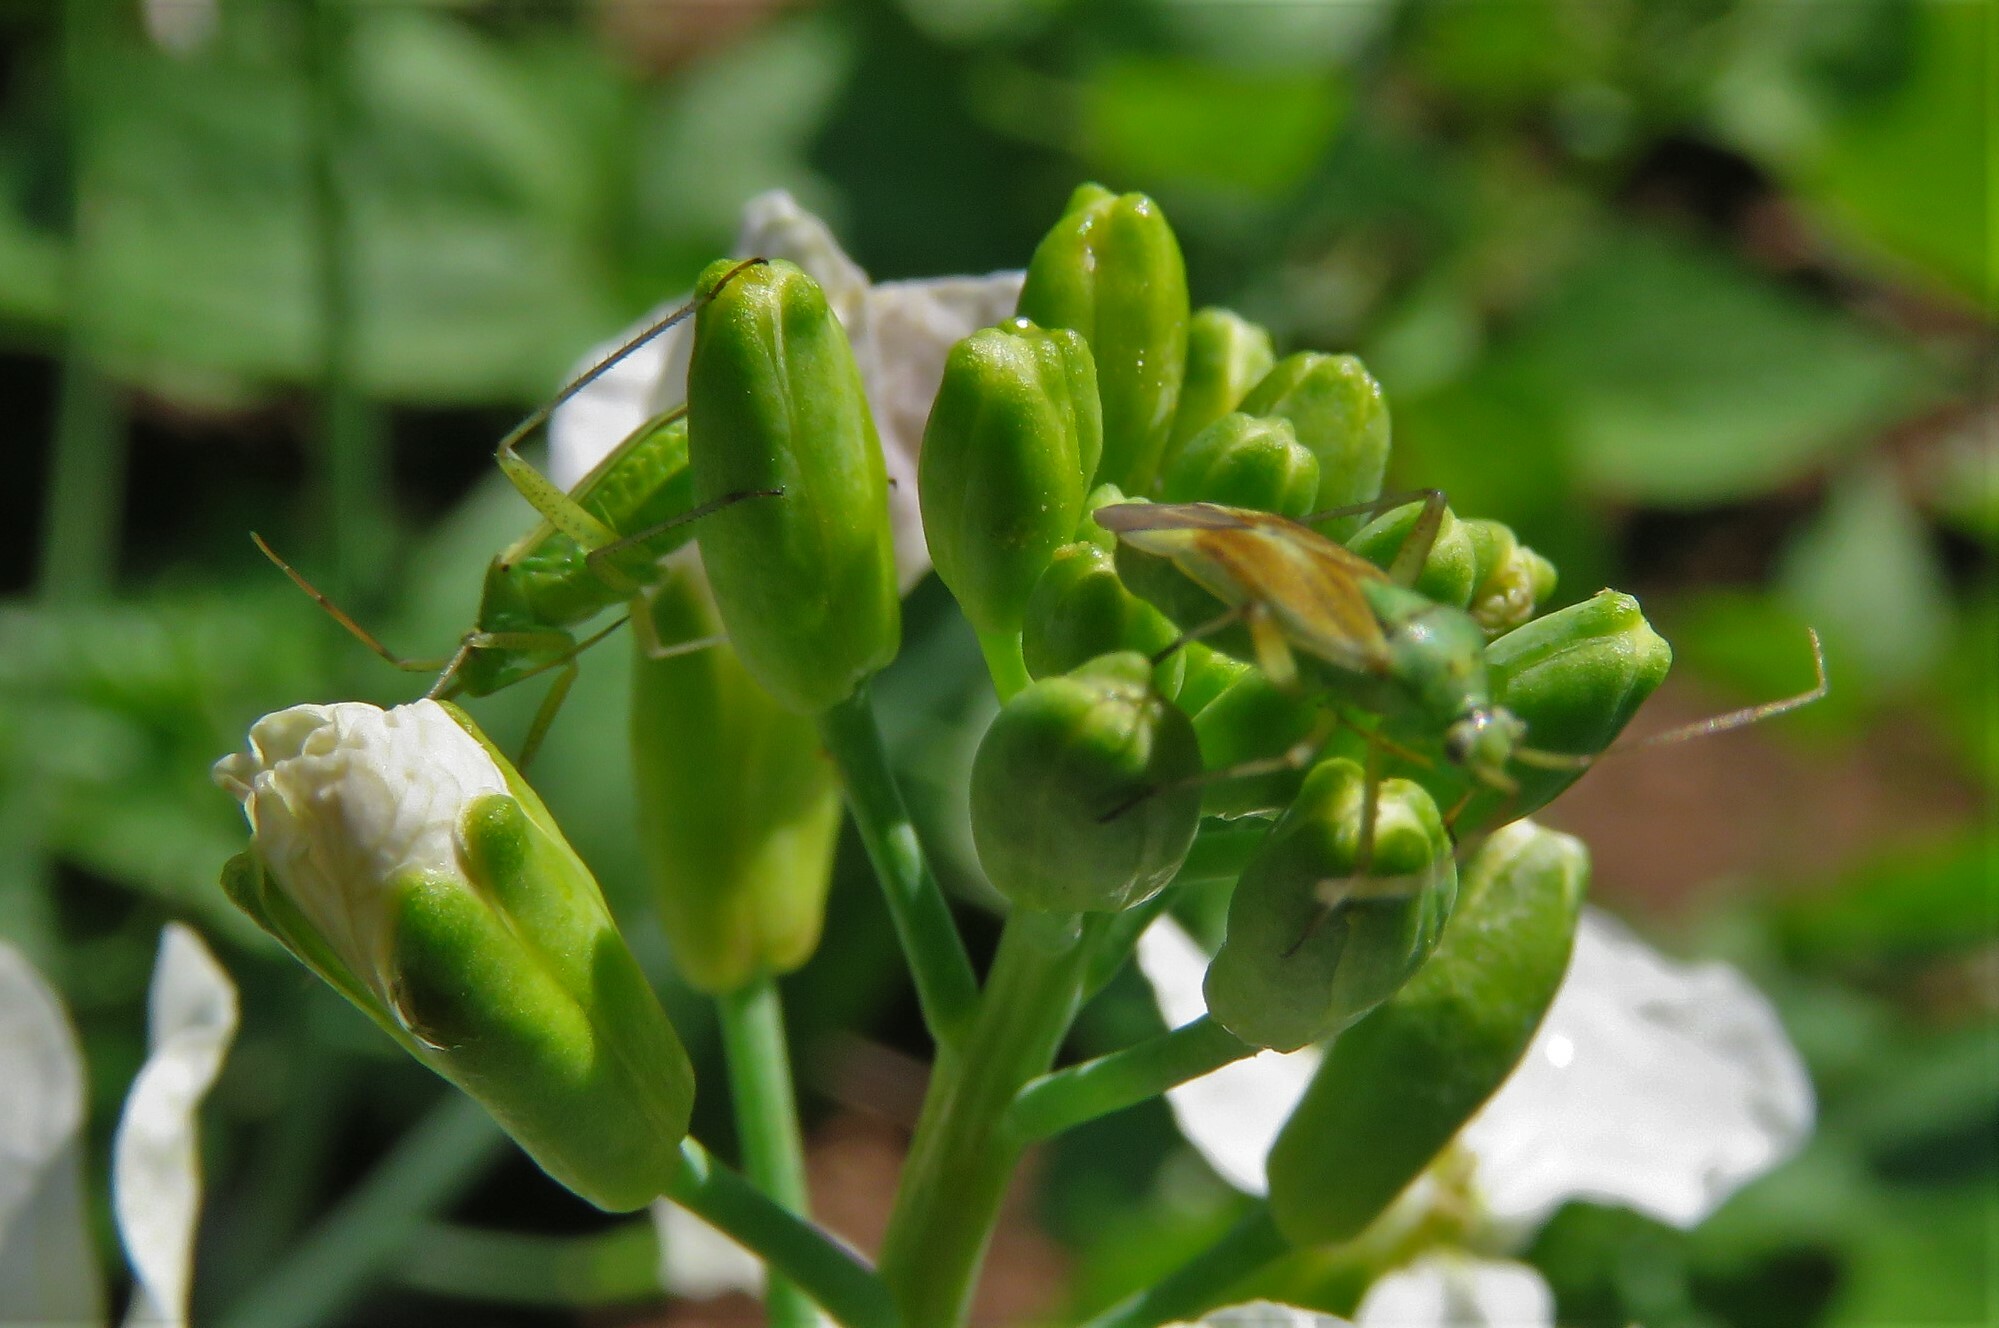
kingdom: Animalia
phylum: Arthropoda
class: Insecta
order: Hemiptera
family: Miridae
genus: Closterotomus
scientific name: Closterotomus norvegicus
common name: Plant bug
